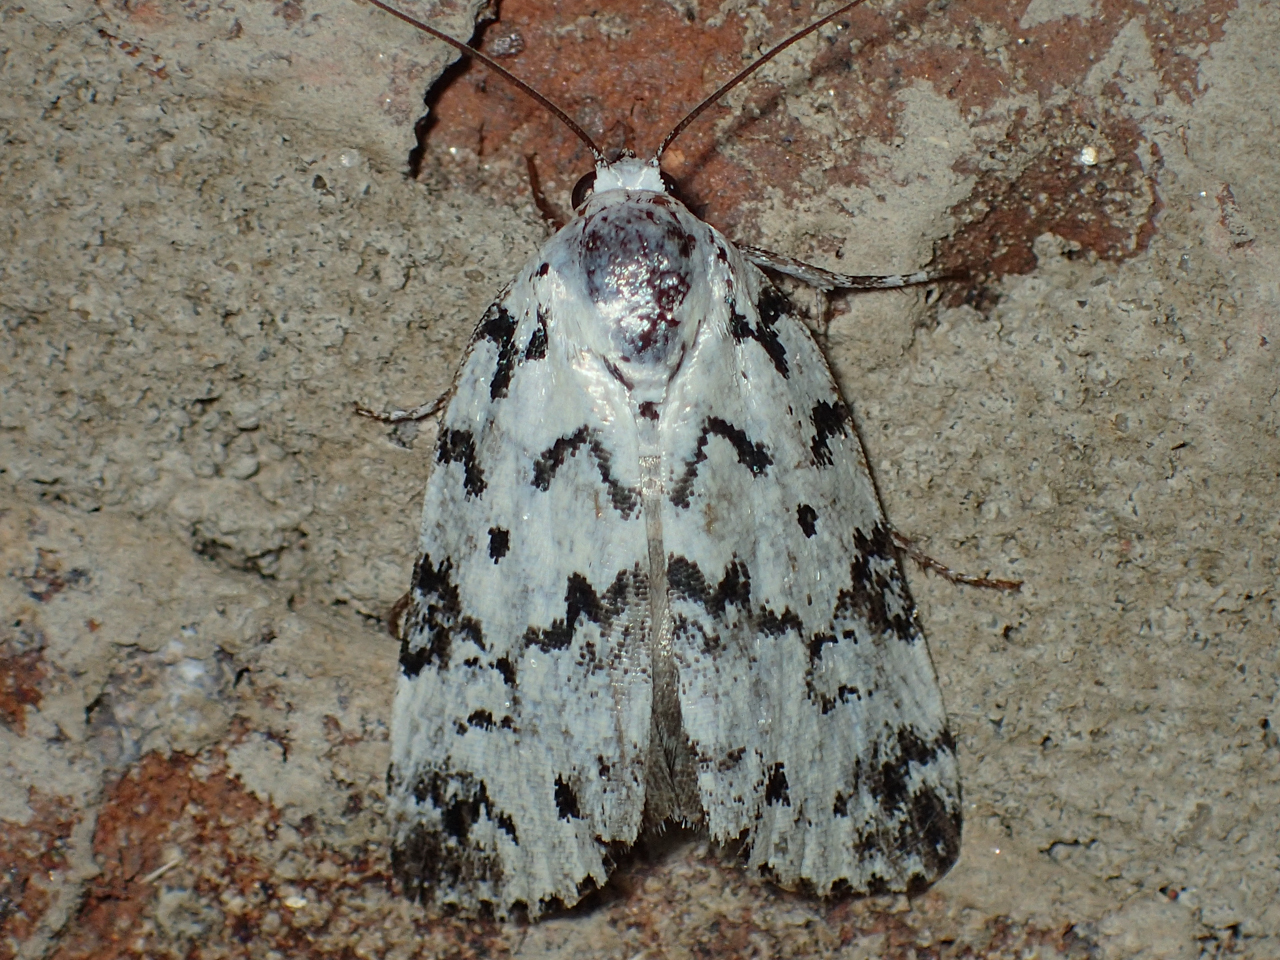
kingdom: Animalia
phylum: Arthropoda
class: Insecta
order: Lepidoptera
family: Noctuidae
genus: Polygrammate
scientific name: Polygrammate hebraeicum
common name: Hebrew moth
